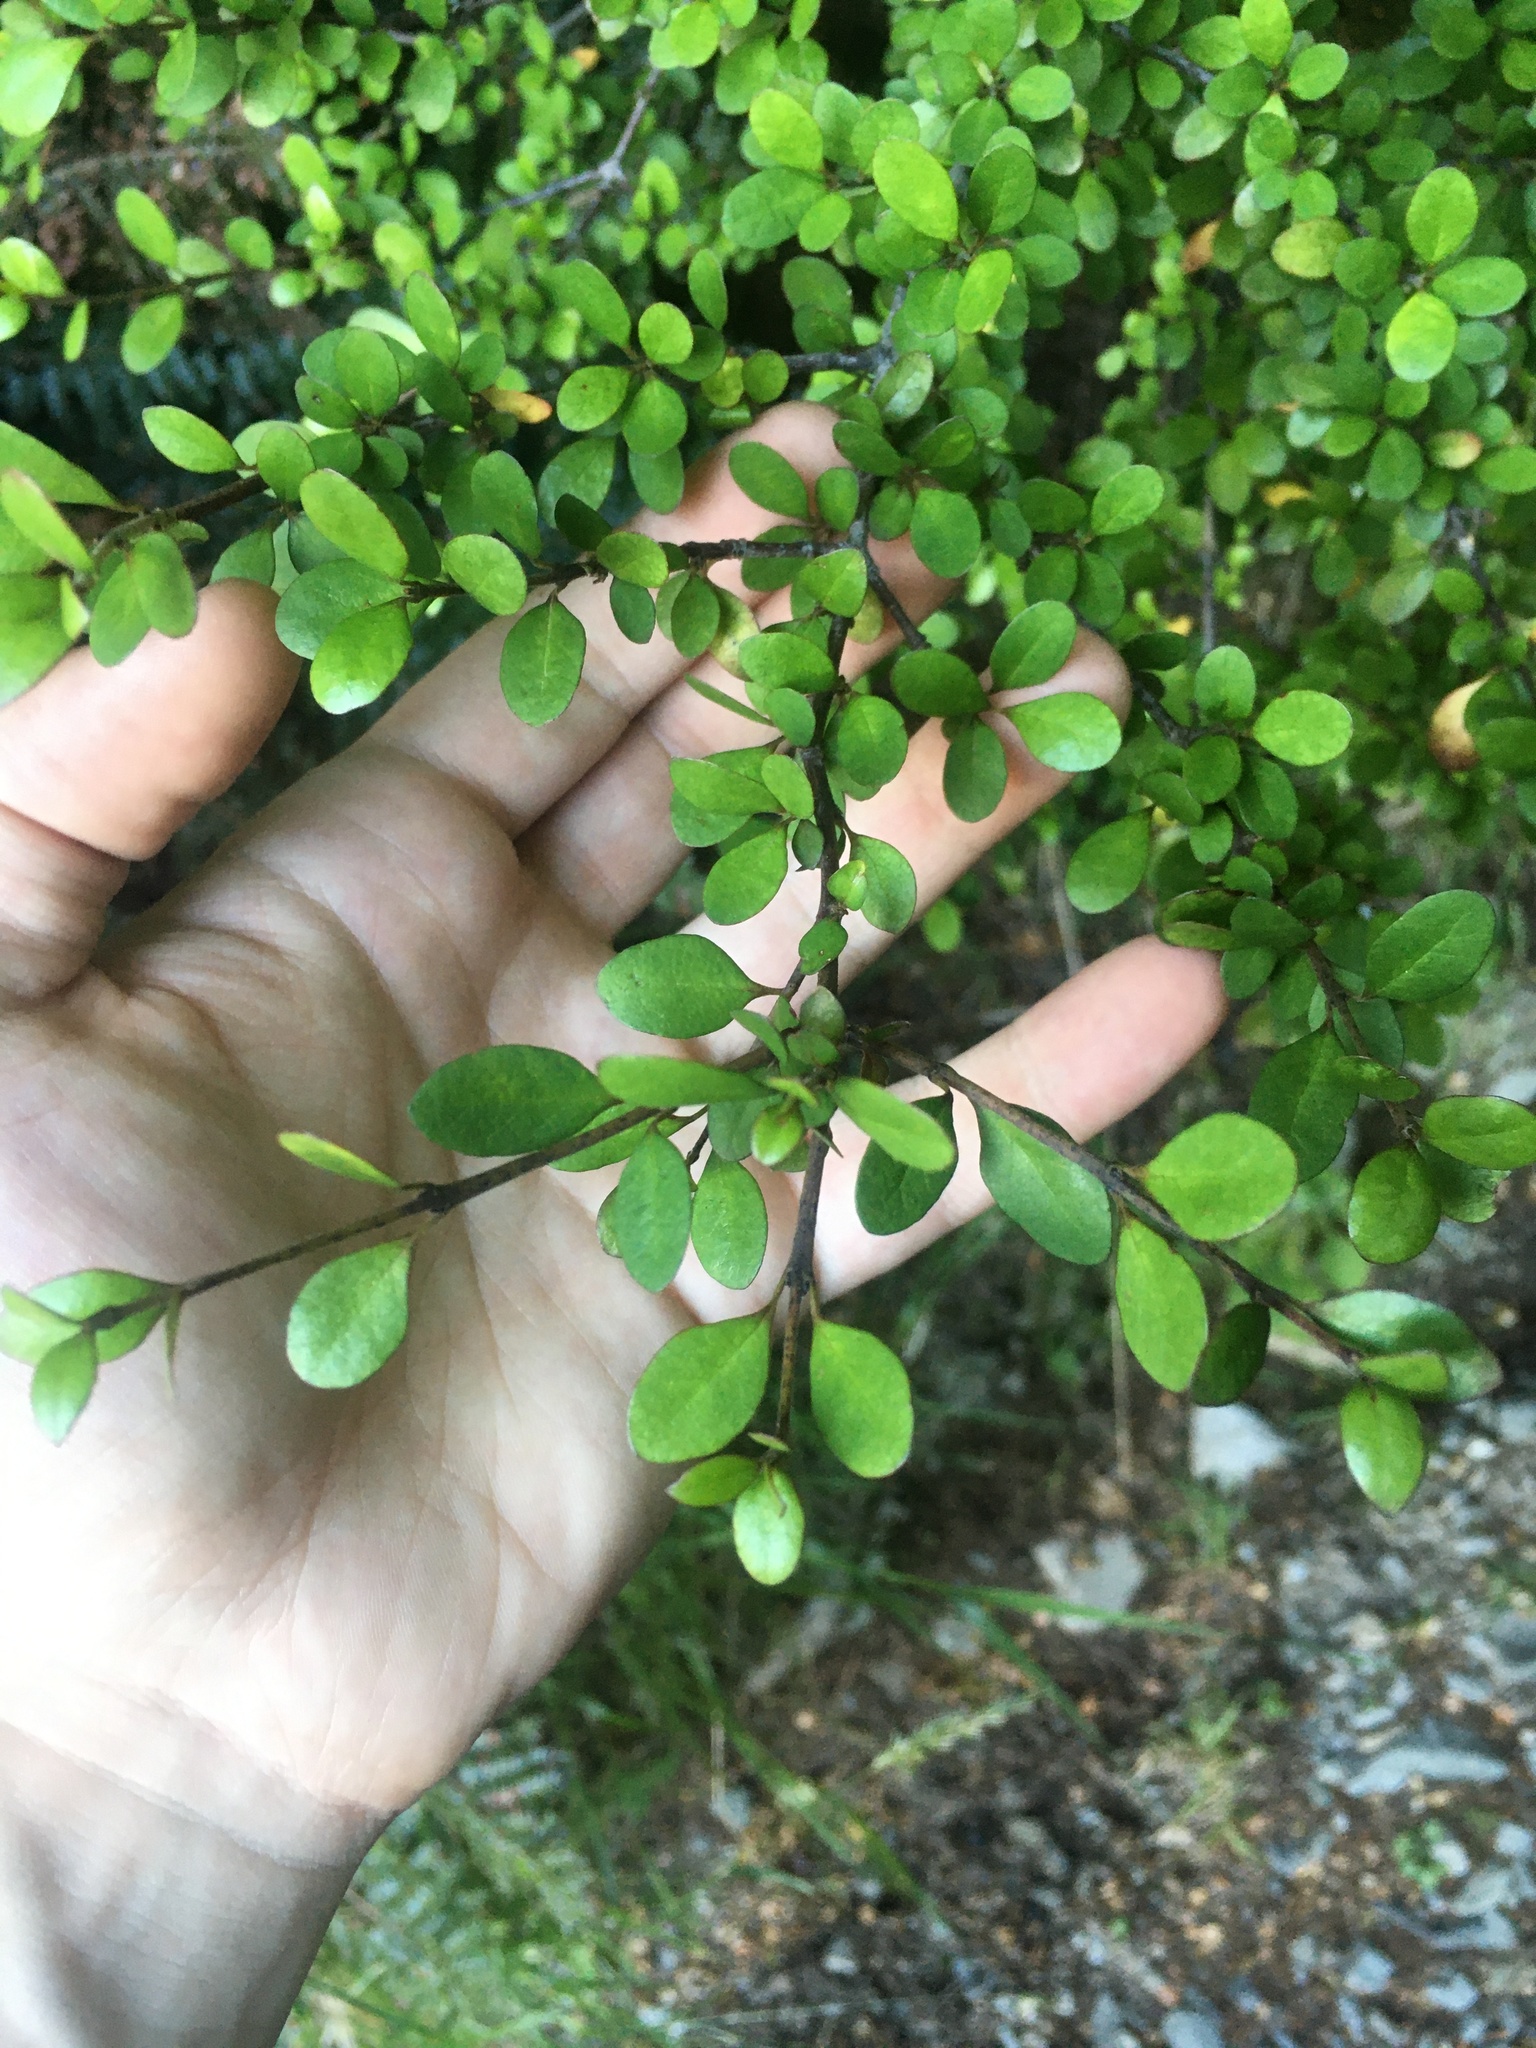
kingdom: Plantae
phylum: Tracheophyta
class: Magnoliopsida
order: Oxalidales
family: Elaeocarpaceae
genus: Aristotelia
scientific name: Aristotelia fruticosa
